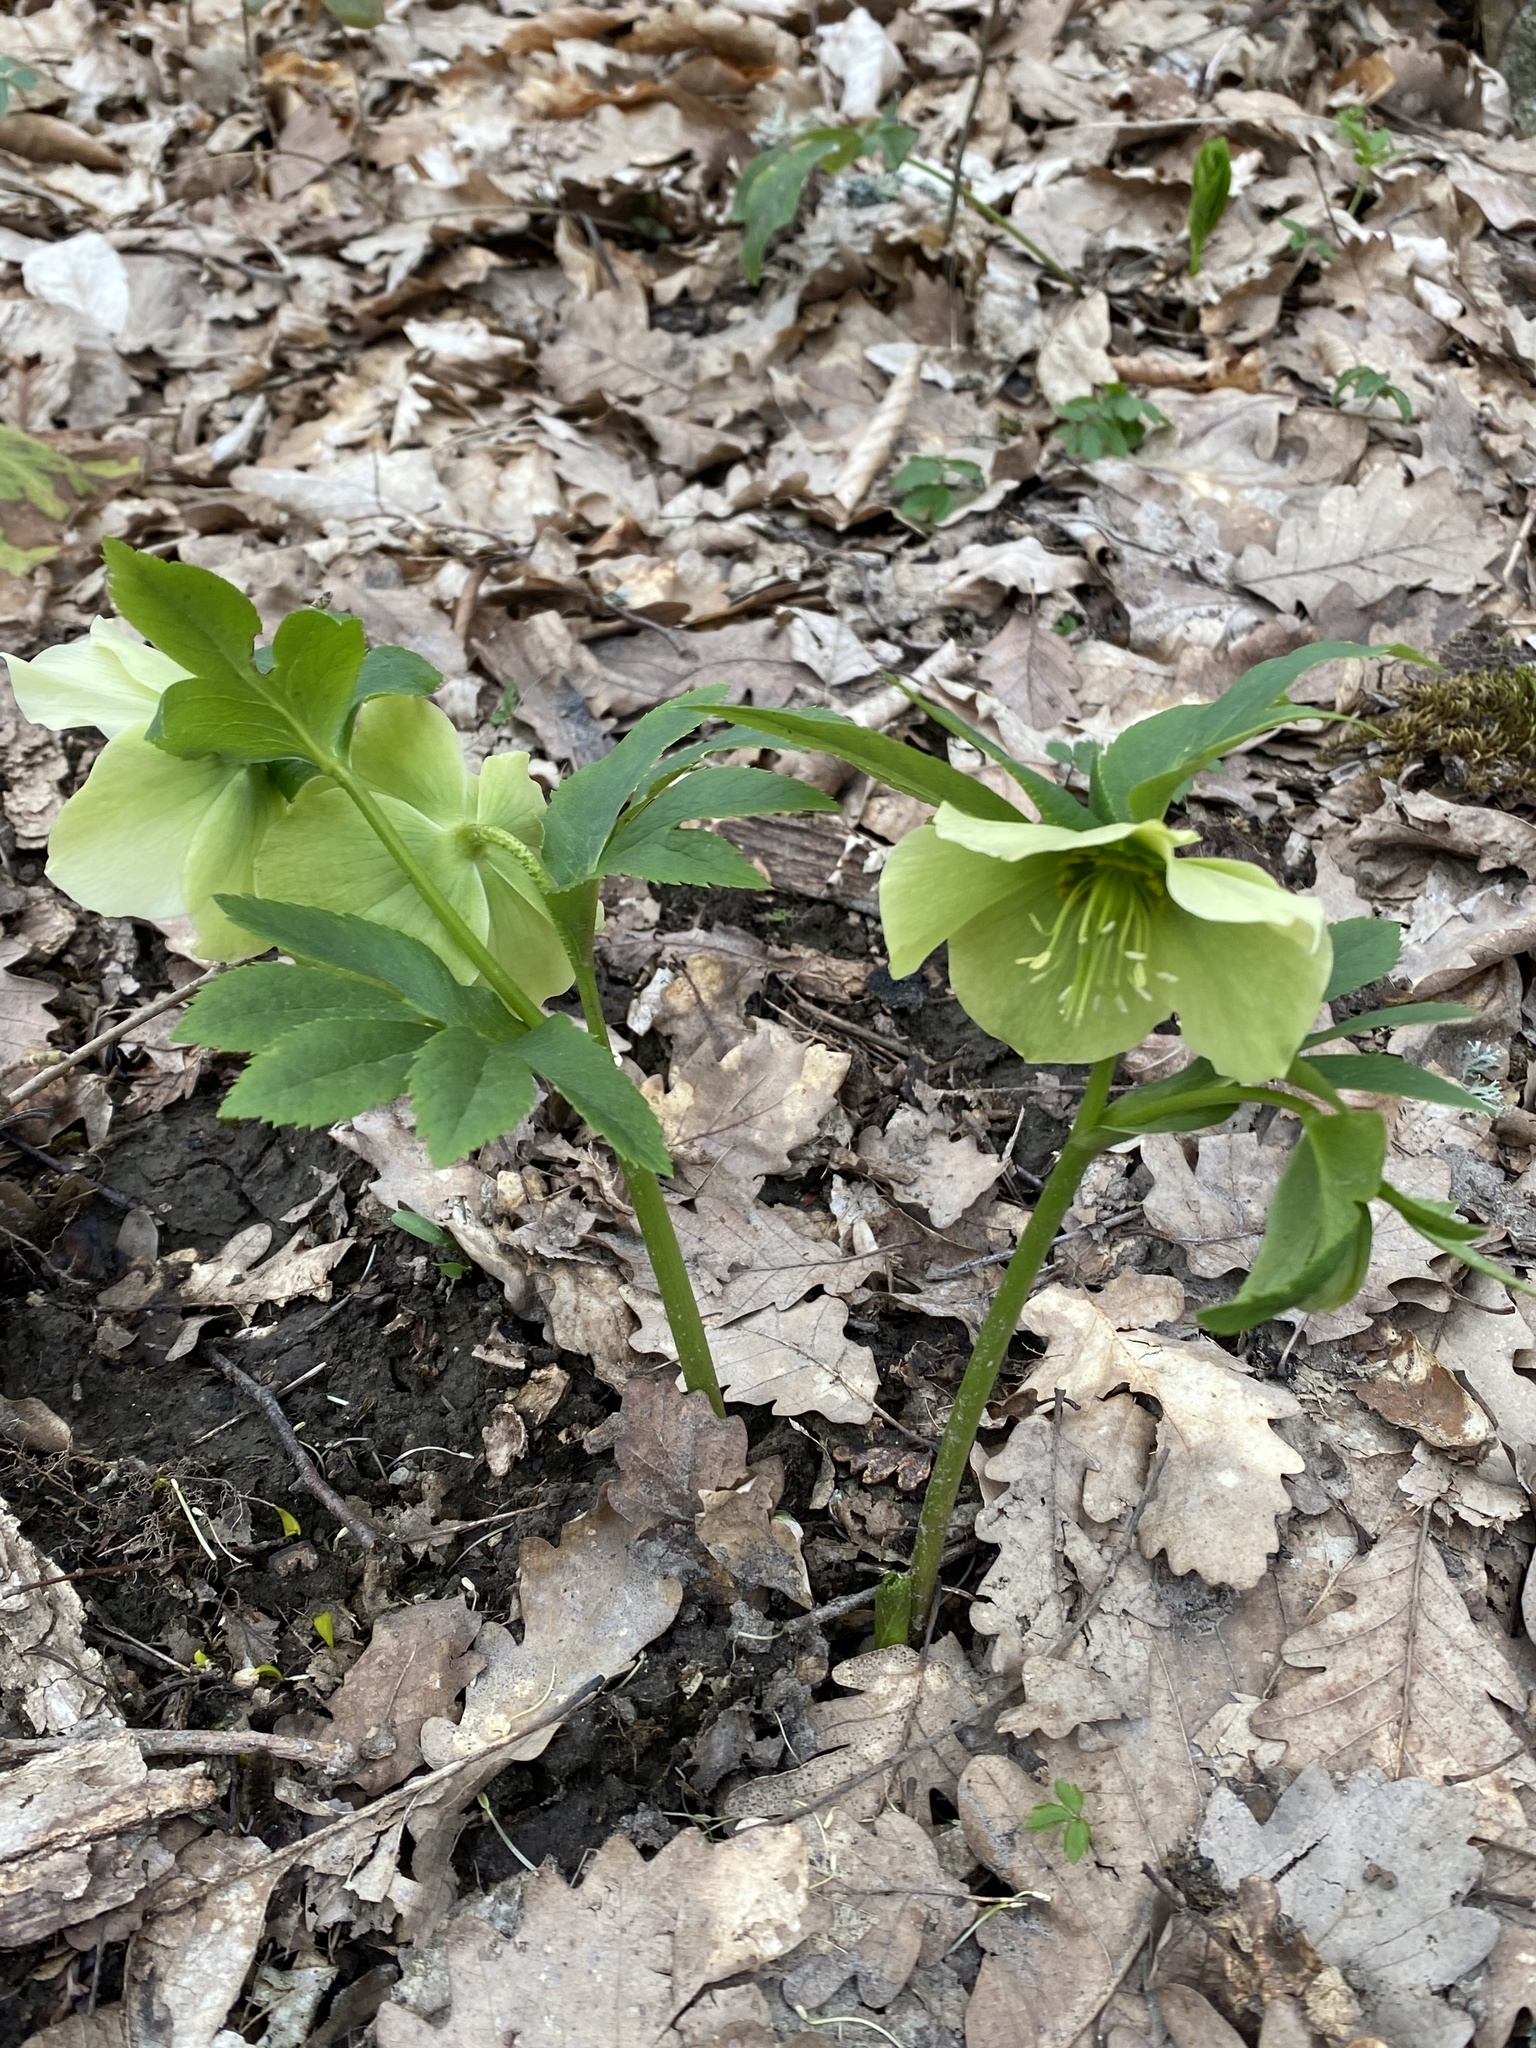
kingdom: Plantae
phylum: Tracheophyta
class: Magnoliopsida
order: Ranunculales
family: Ranunculaceae
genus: Helleborus
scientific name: Helleborus orientalis
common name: Lenten-rose
